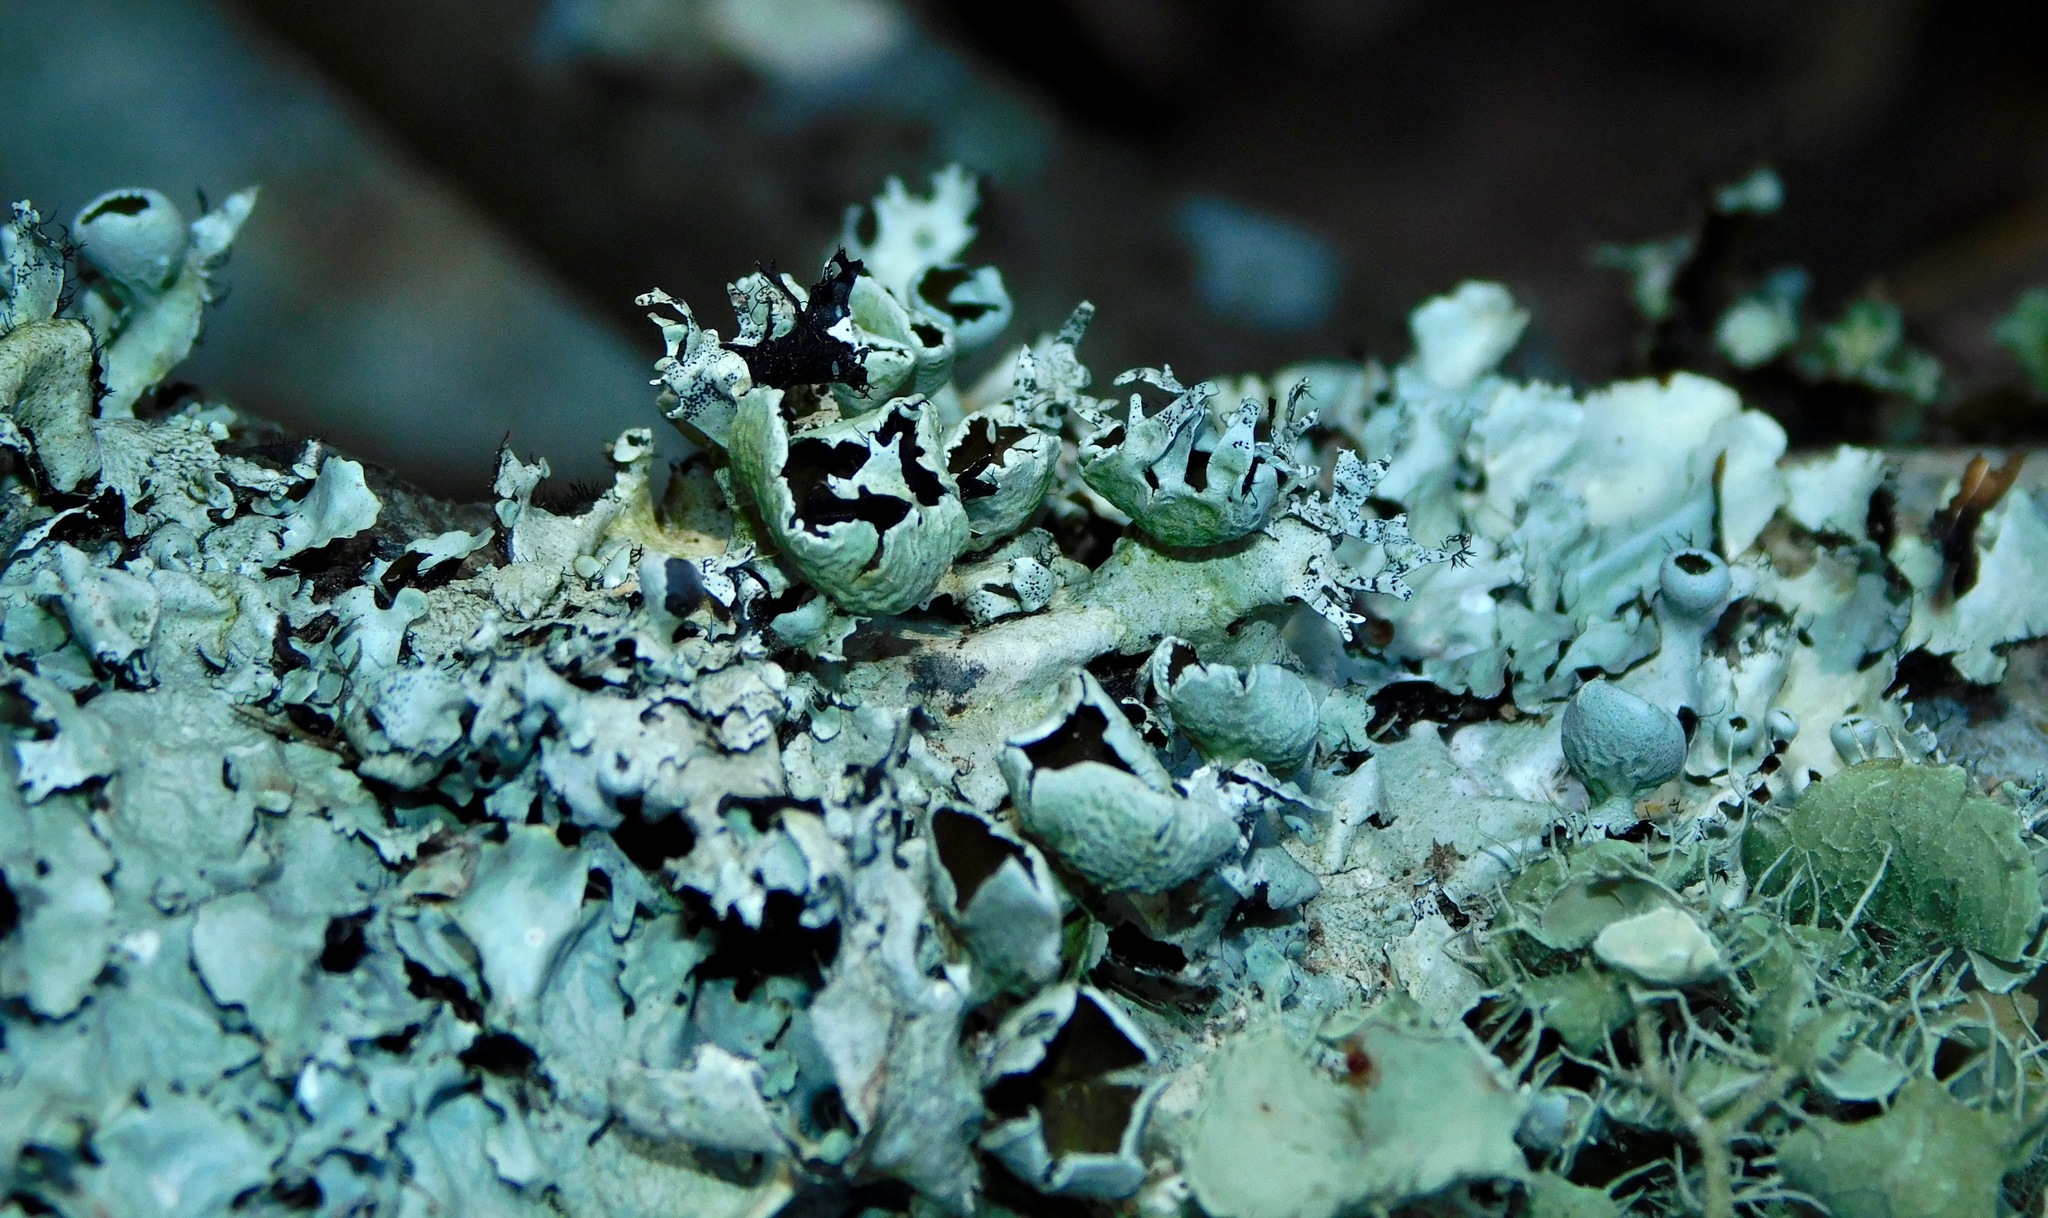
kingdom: Fungi
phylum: Ascomycota
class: Lecanoromycetes
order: Lecanorales
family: Parmeliaceae
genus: Parmotrema
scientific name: Parmotrema cetratum
